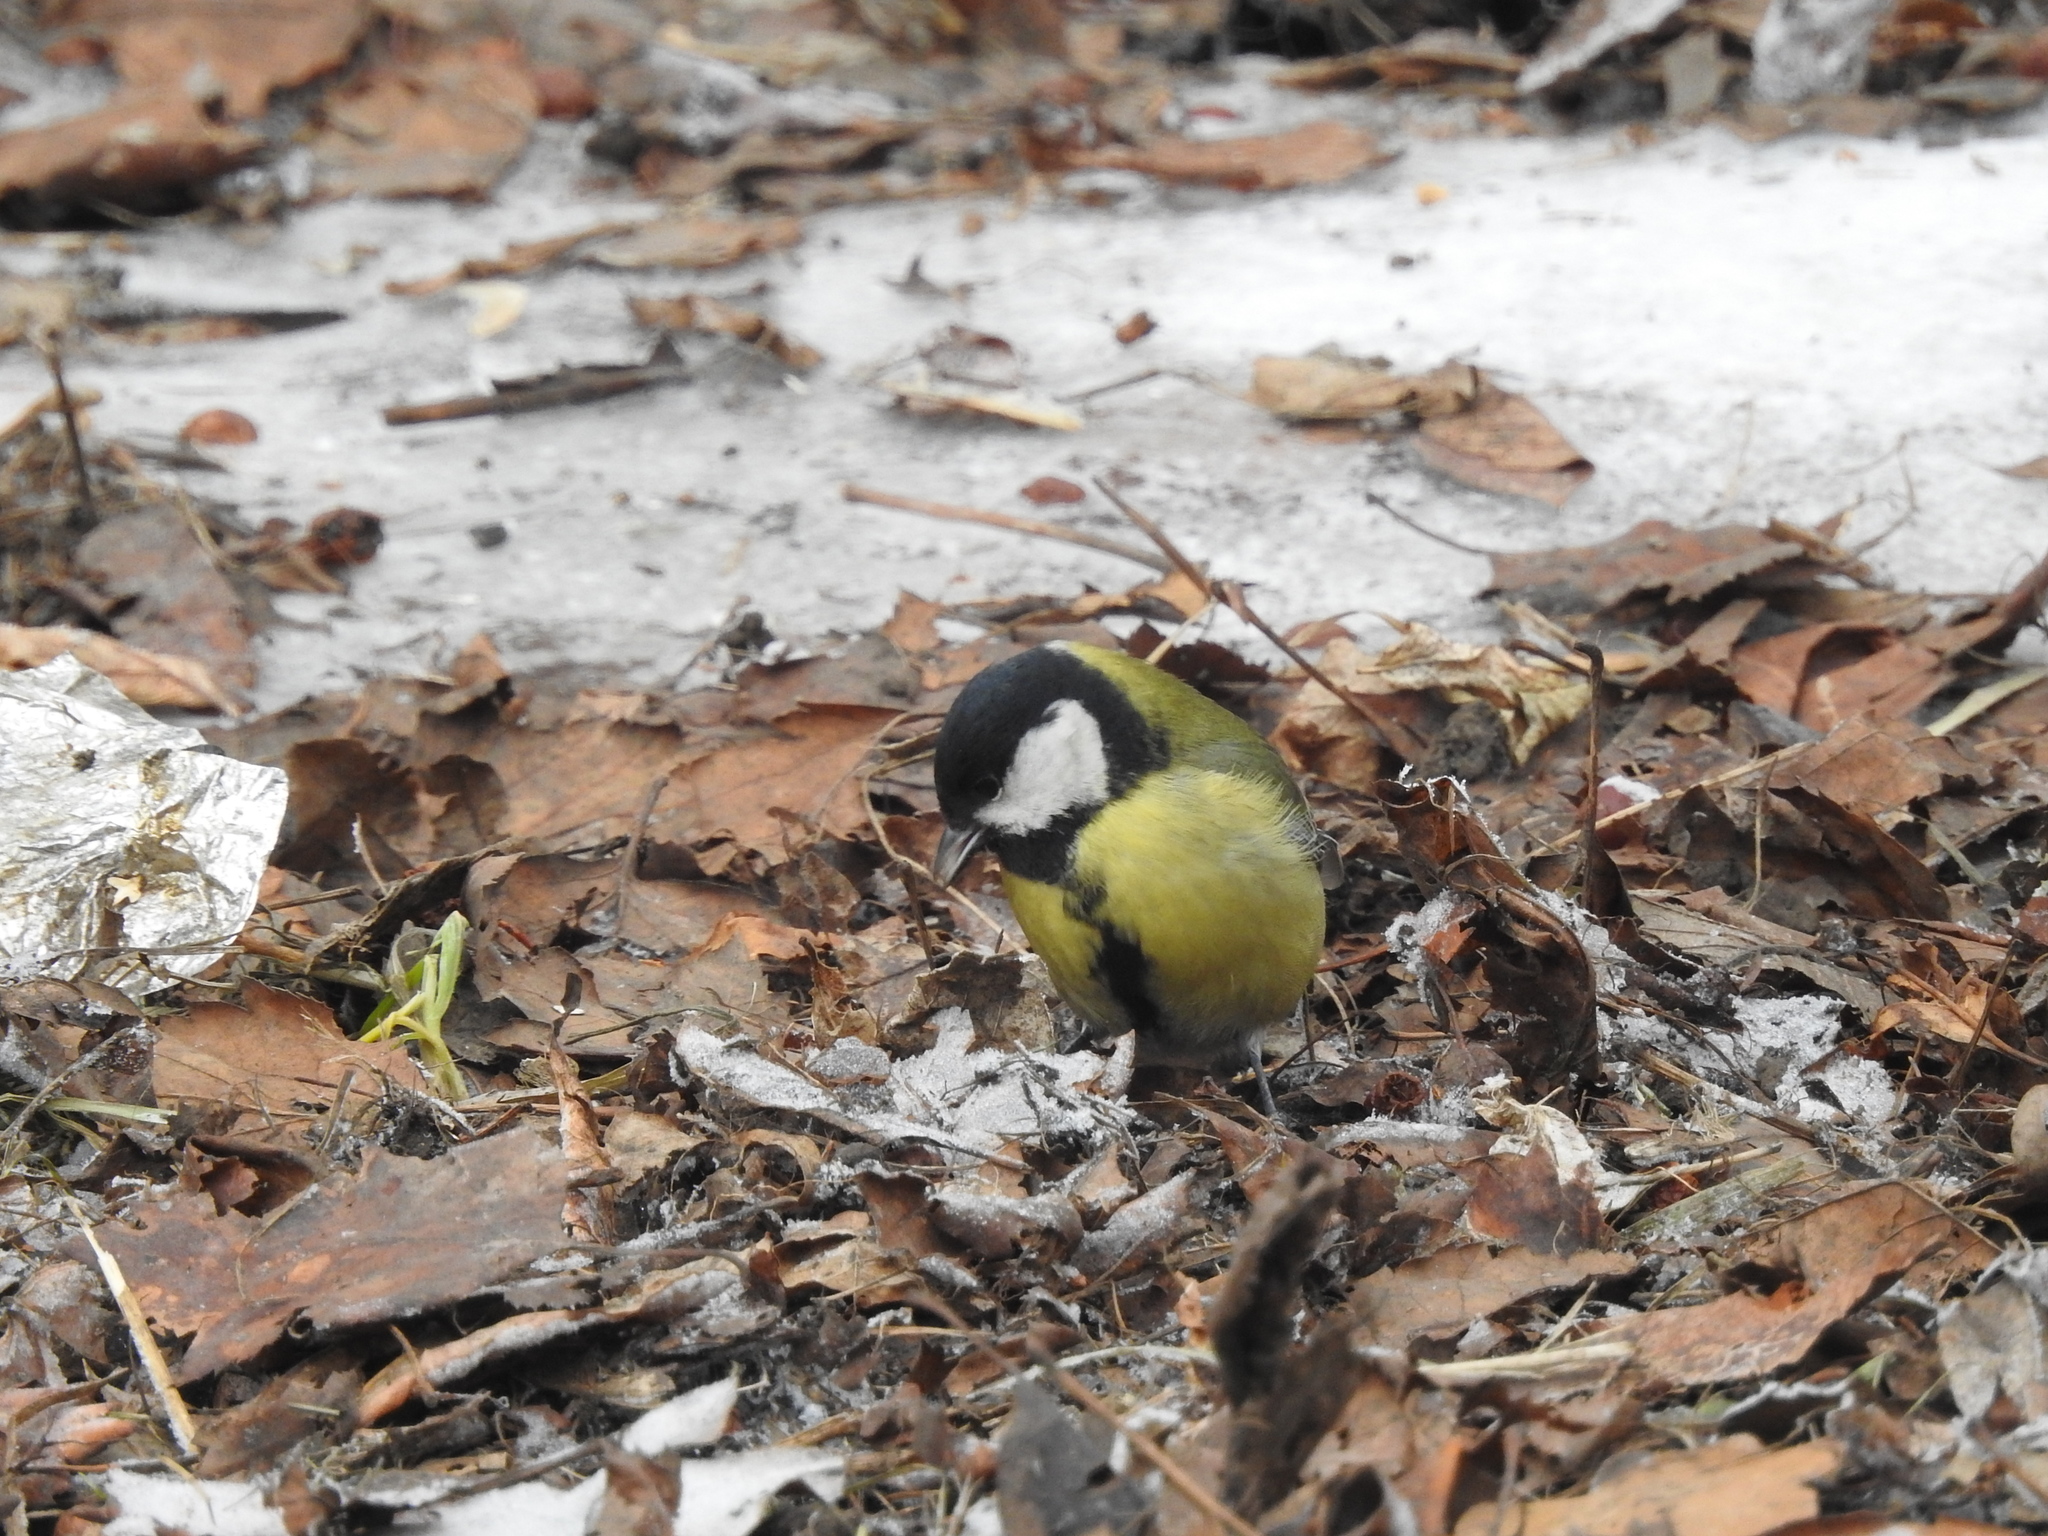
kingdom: Animalia
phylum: Chordata
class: Aves
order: Passeriformes
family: Paridae
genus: Parus
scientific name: Parus major
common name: Great tit
